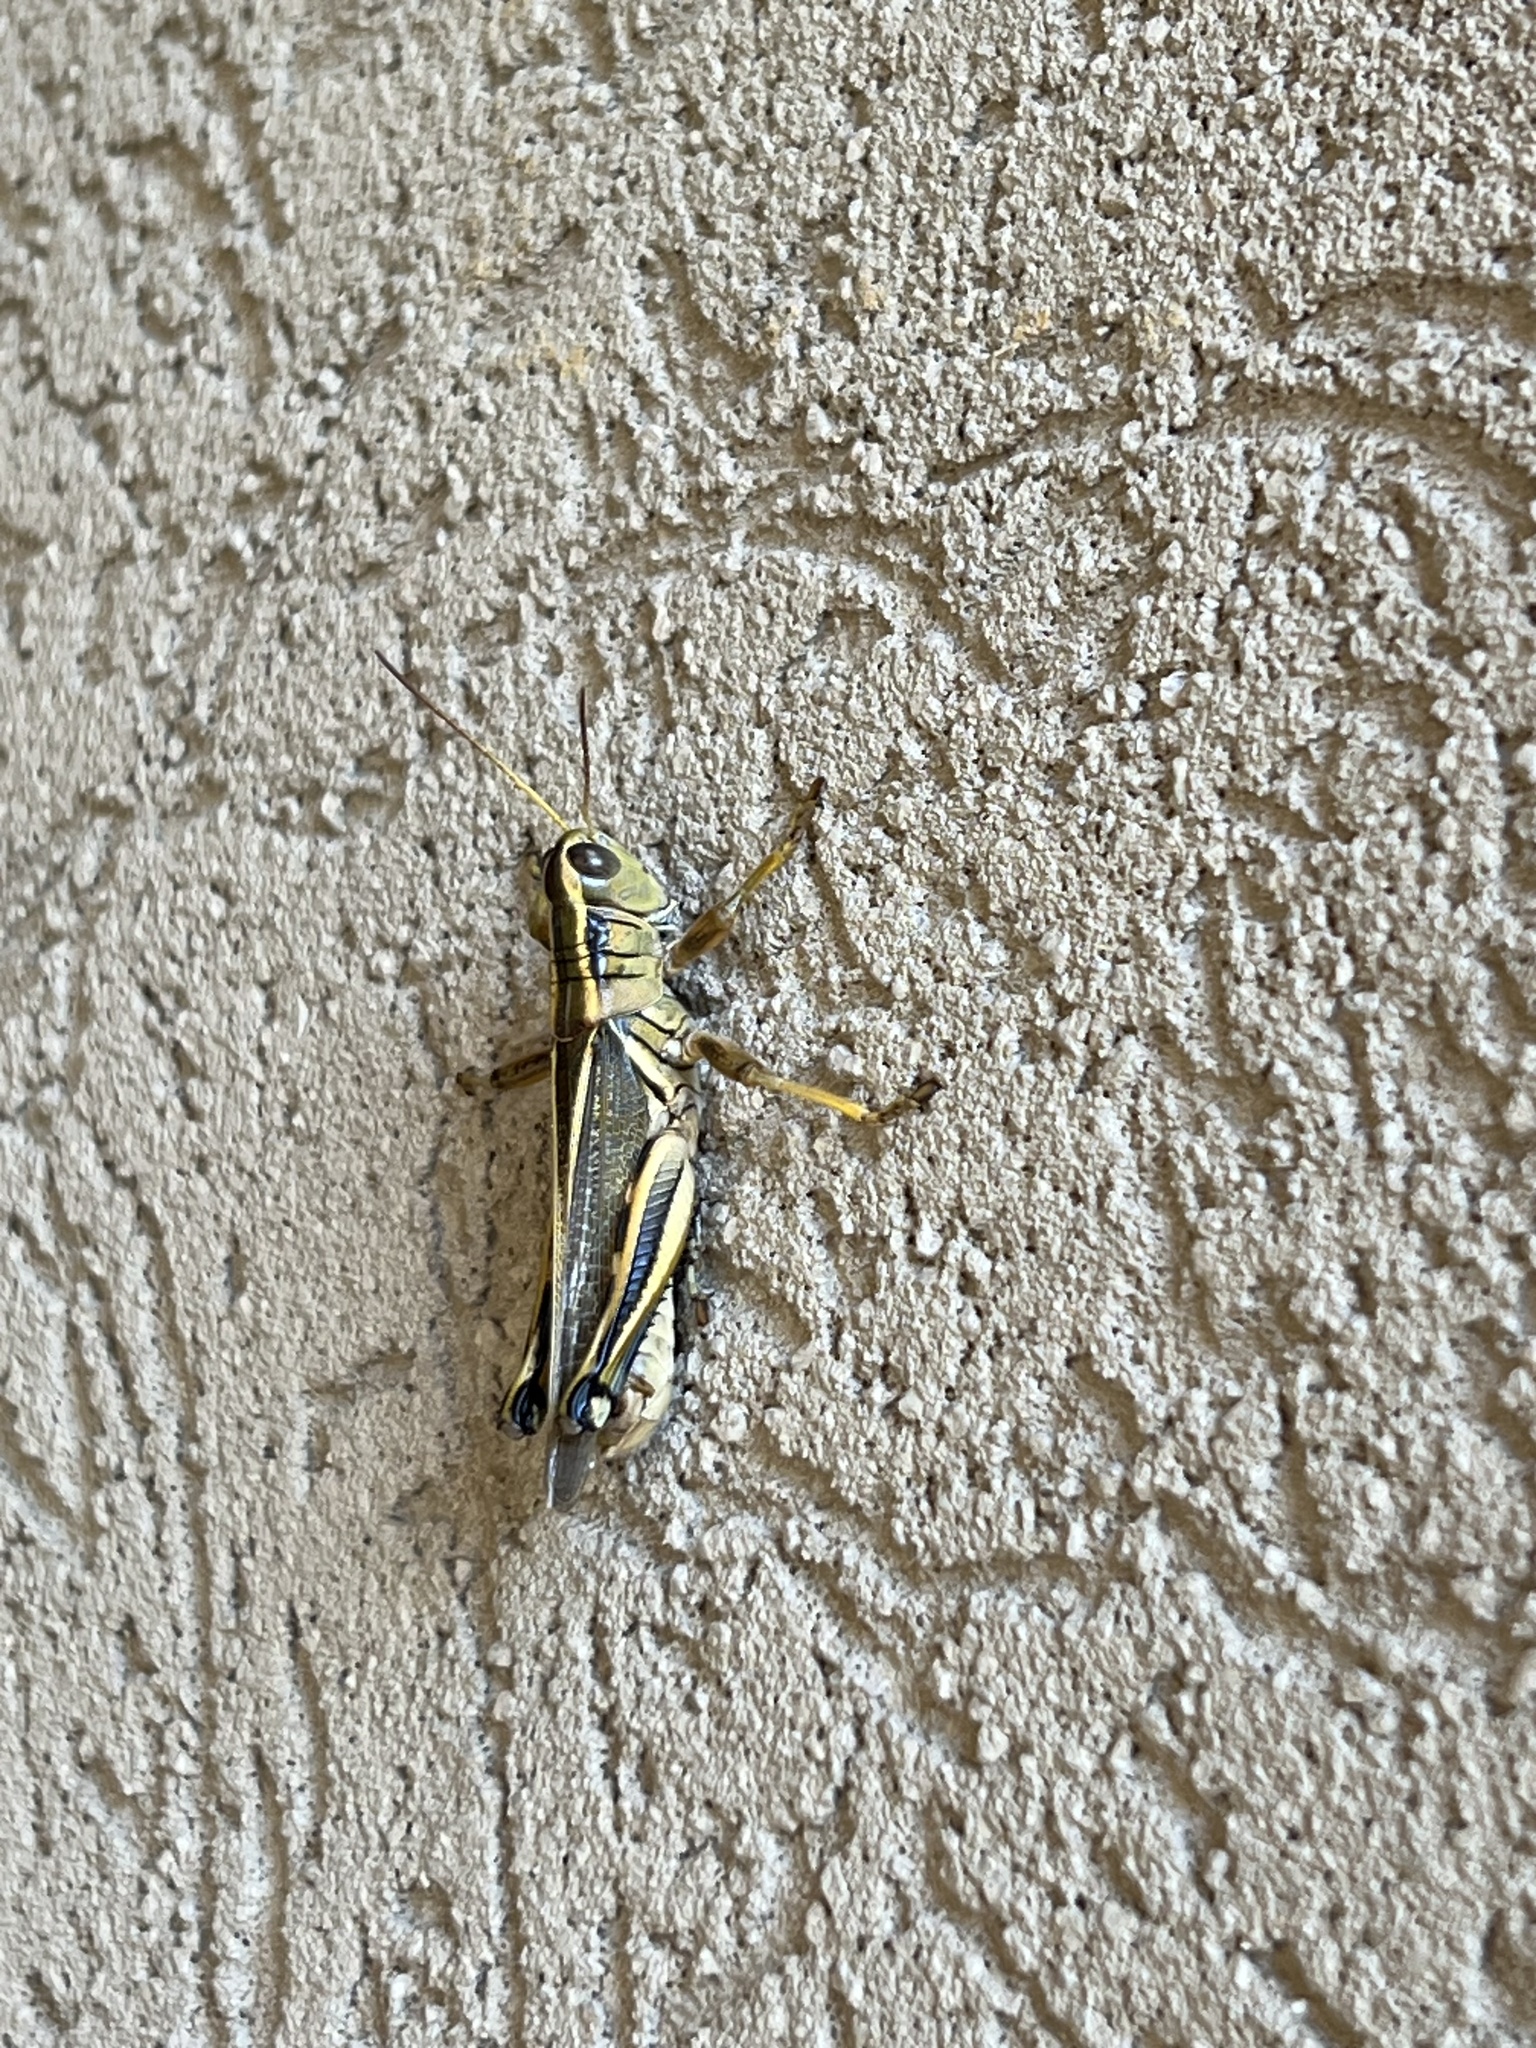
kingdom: Animalia
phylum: Arthropoda
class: Insecta
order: Orthoptera
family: Acrididae
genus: Melanoplus
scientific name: Melanoplus bivittatus
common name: Two-striped grasshopper
